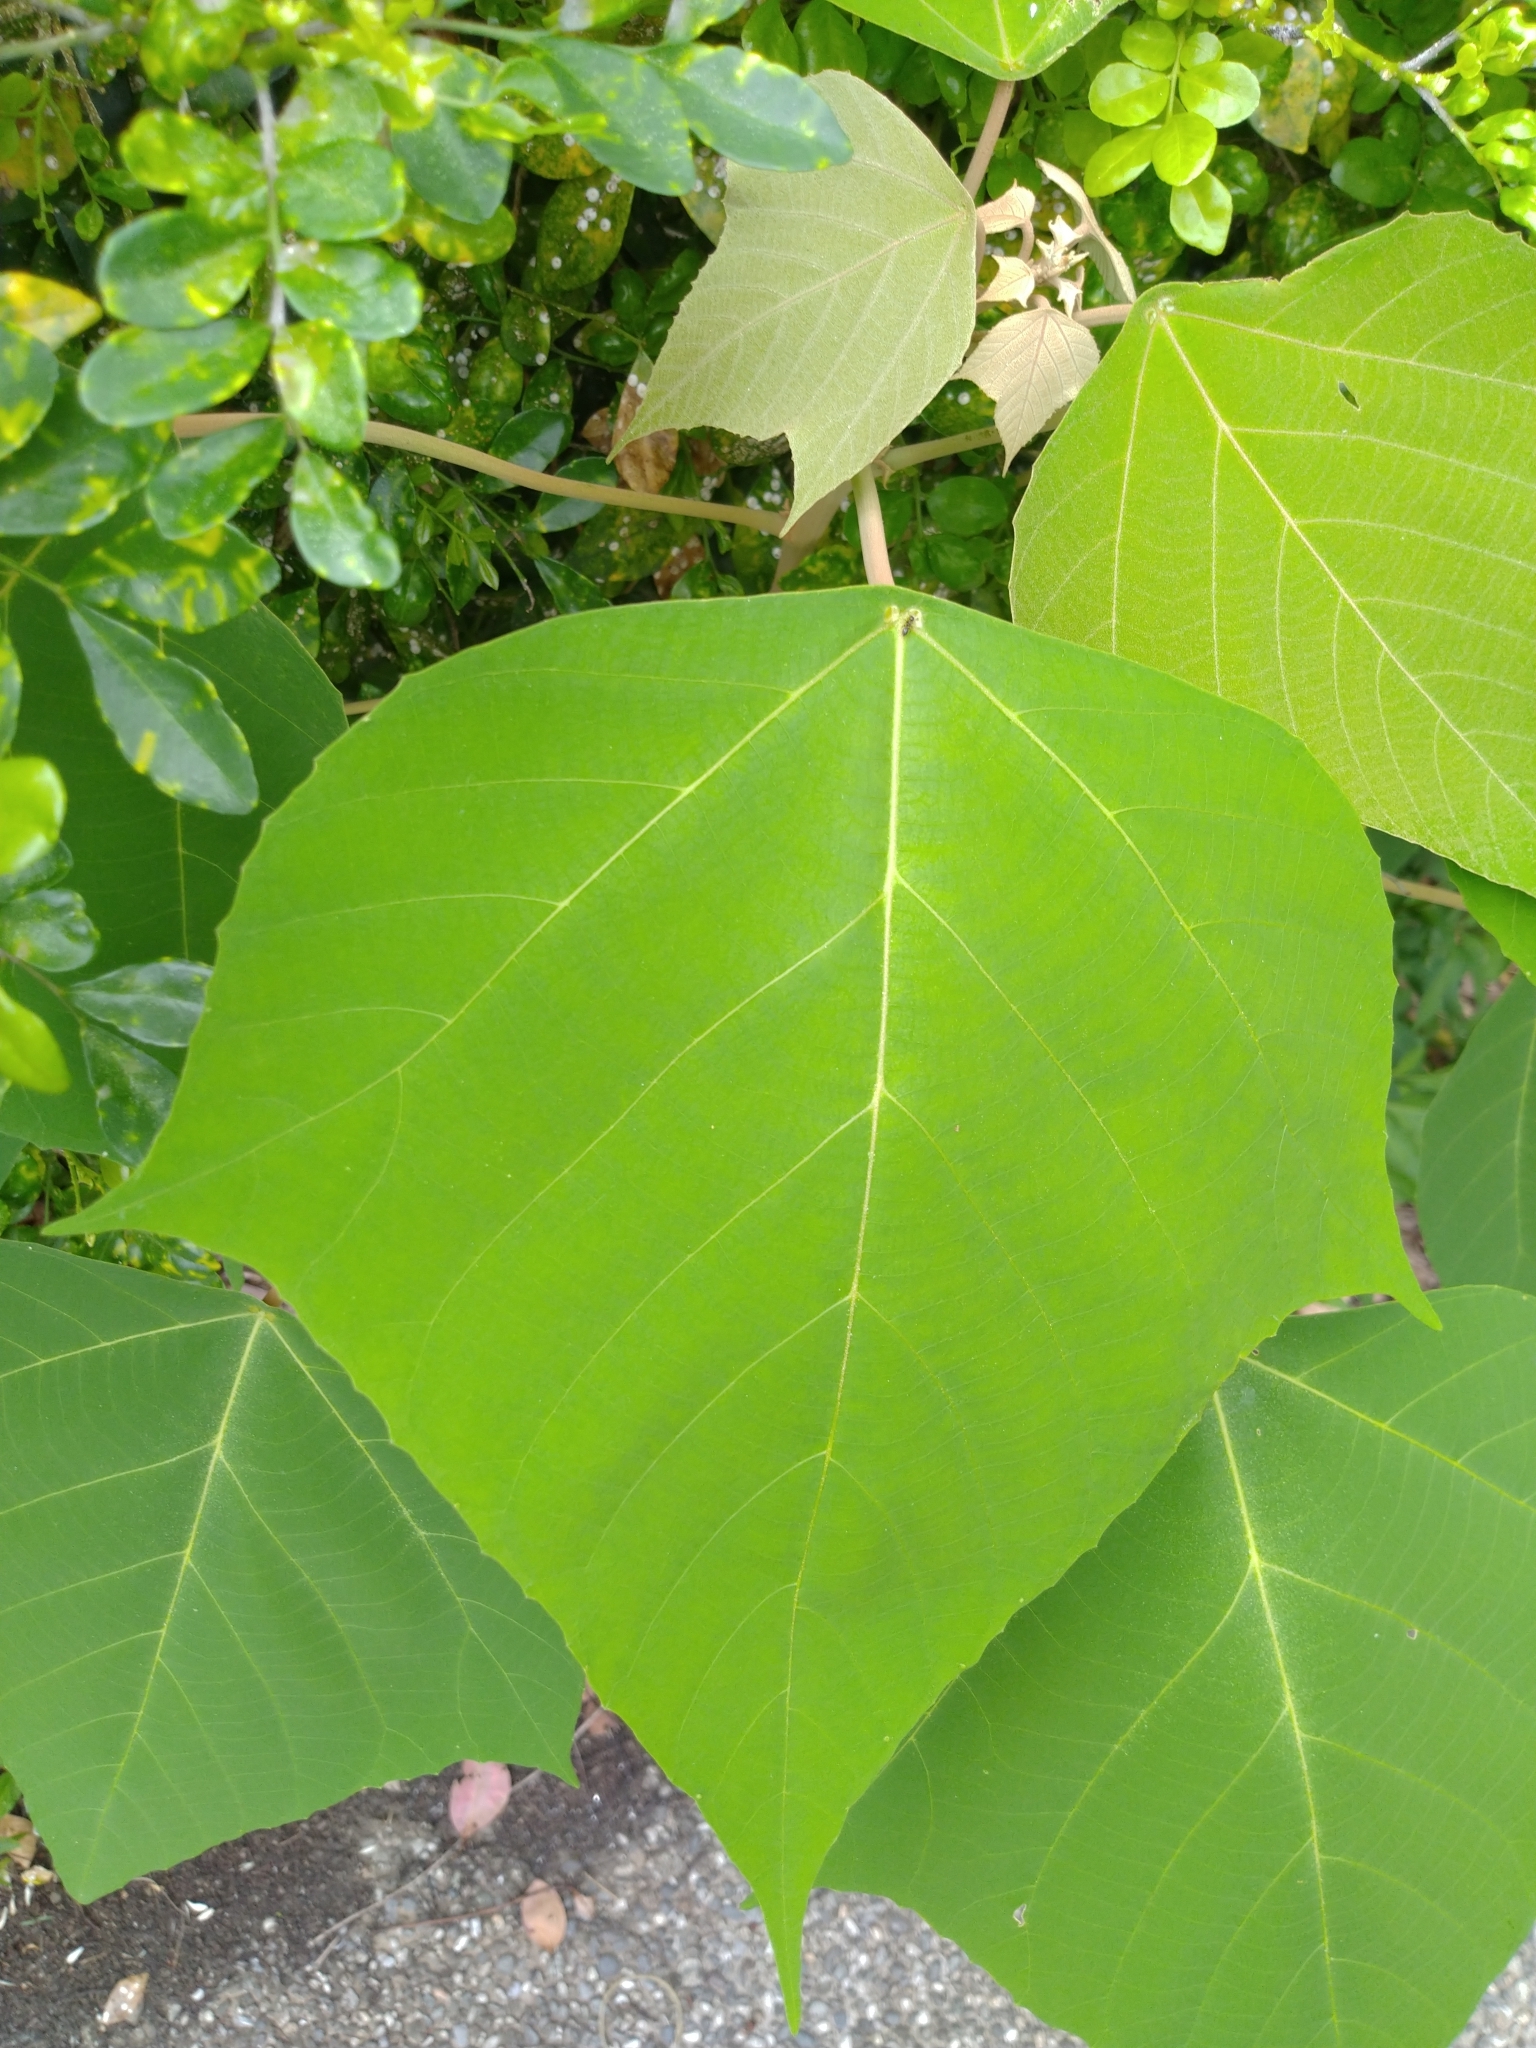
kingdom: Plantae
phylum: Tracheophyta
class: Magnoliopsida
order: Malpighiales
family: Euphorbiaceae
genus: Mallotus
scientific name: Mallotus paniculatus
